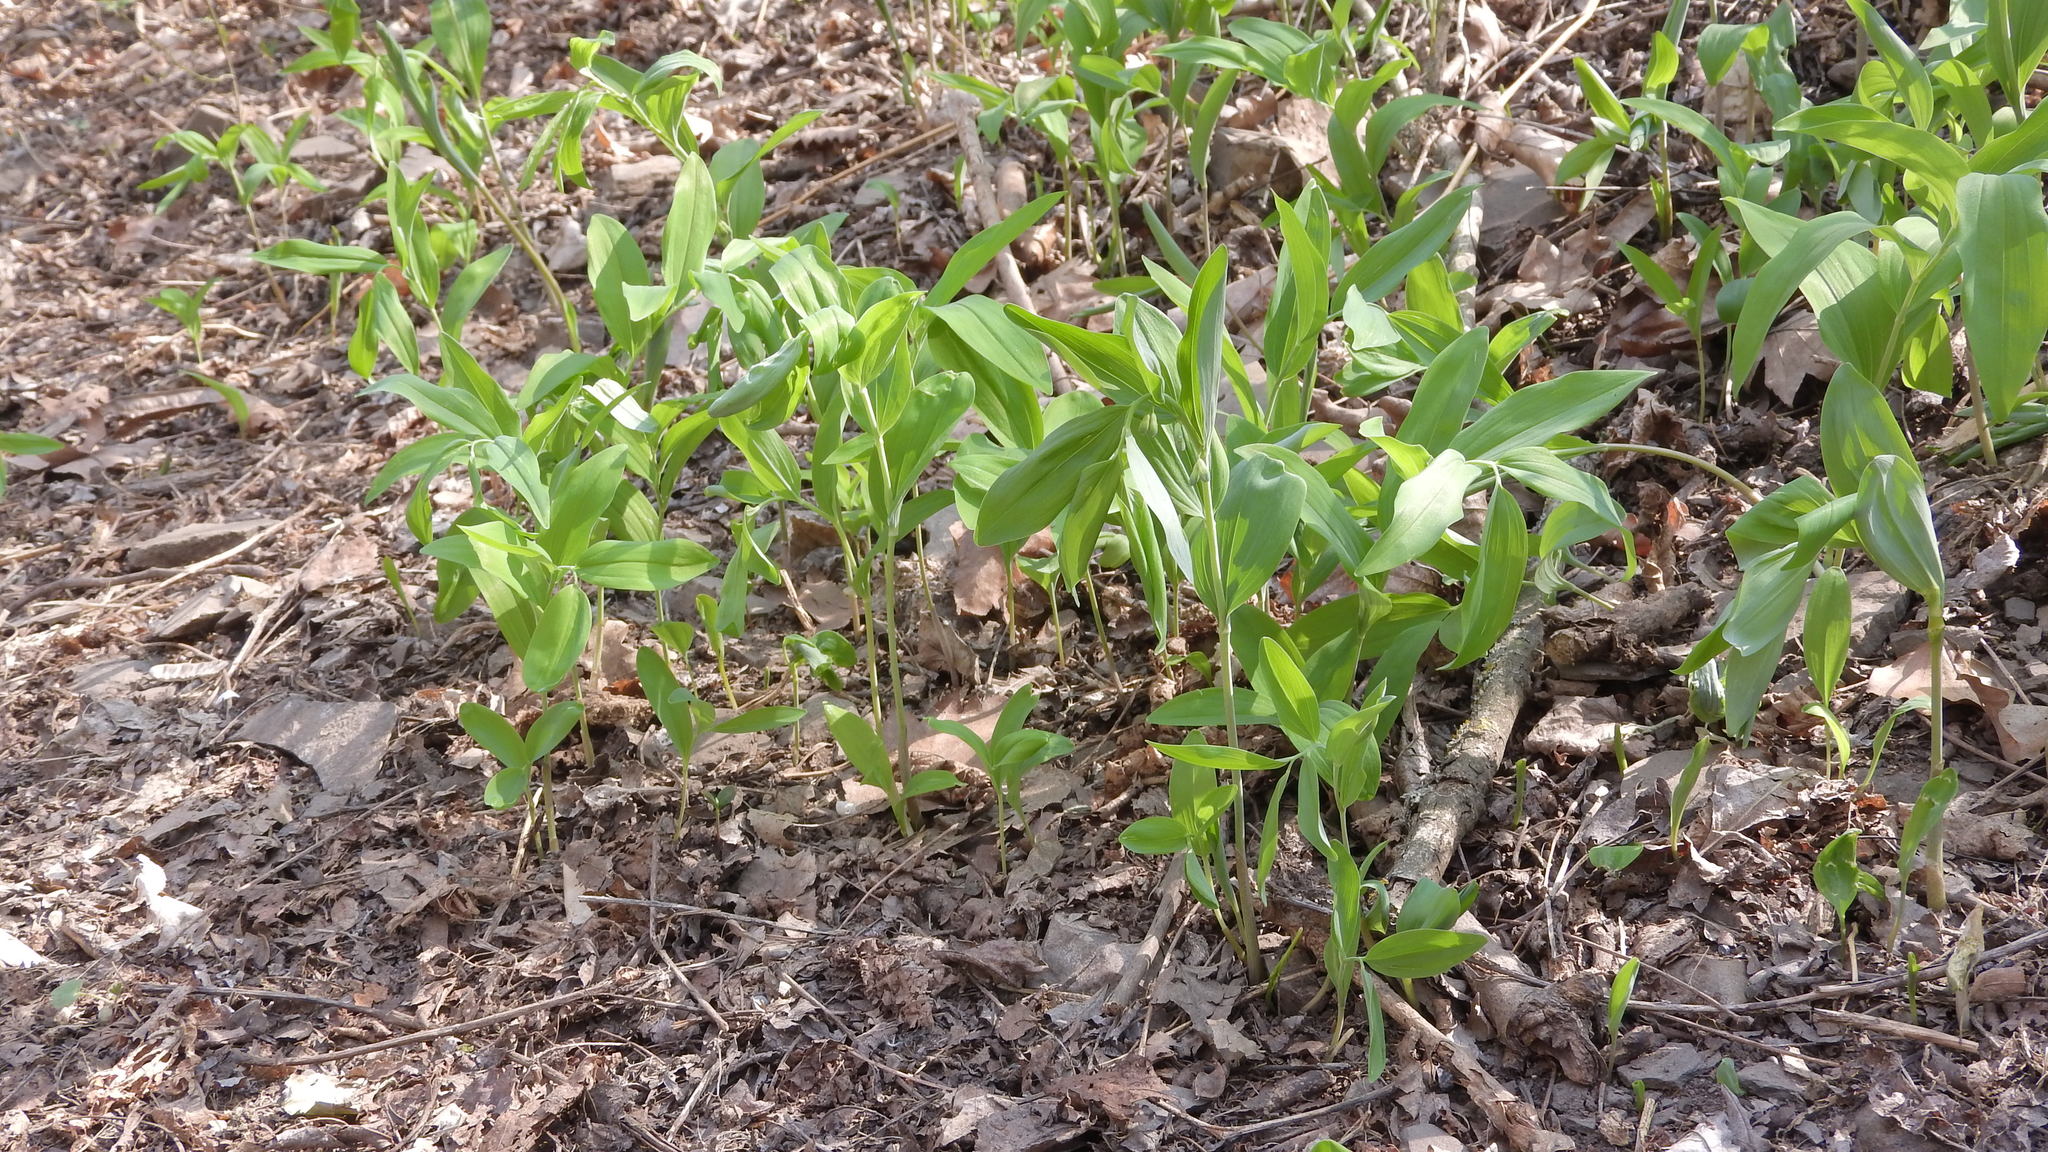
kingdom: Plantae
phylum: Tracheophyta
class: Liliopsida
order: Asparagales
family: Asparagaceae
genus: Polygonatum
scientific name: Polygonatum multiflorum
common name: Solomon's-seal
